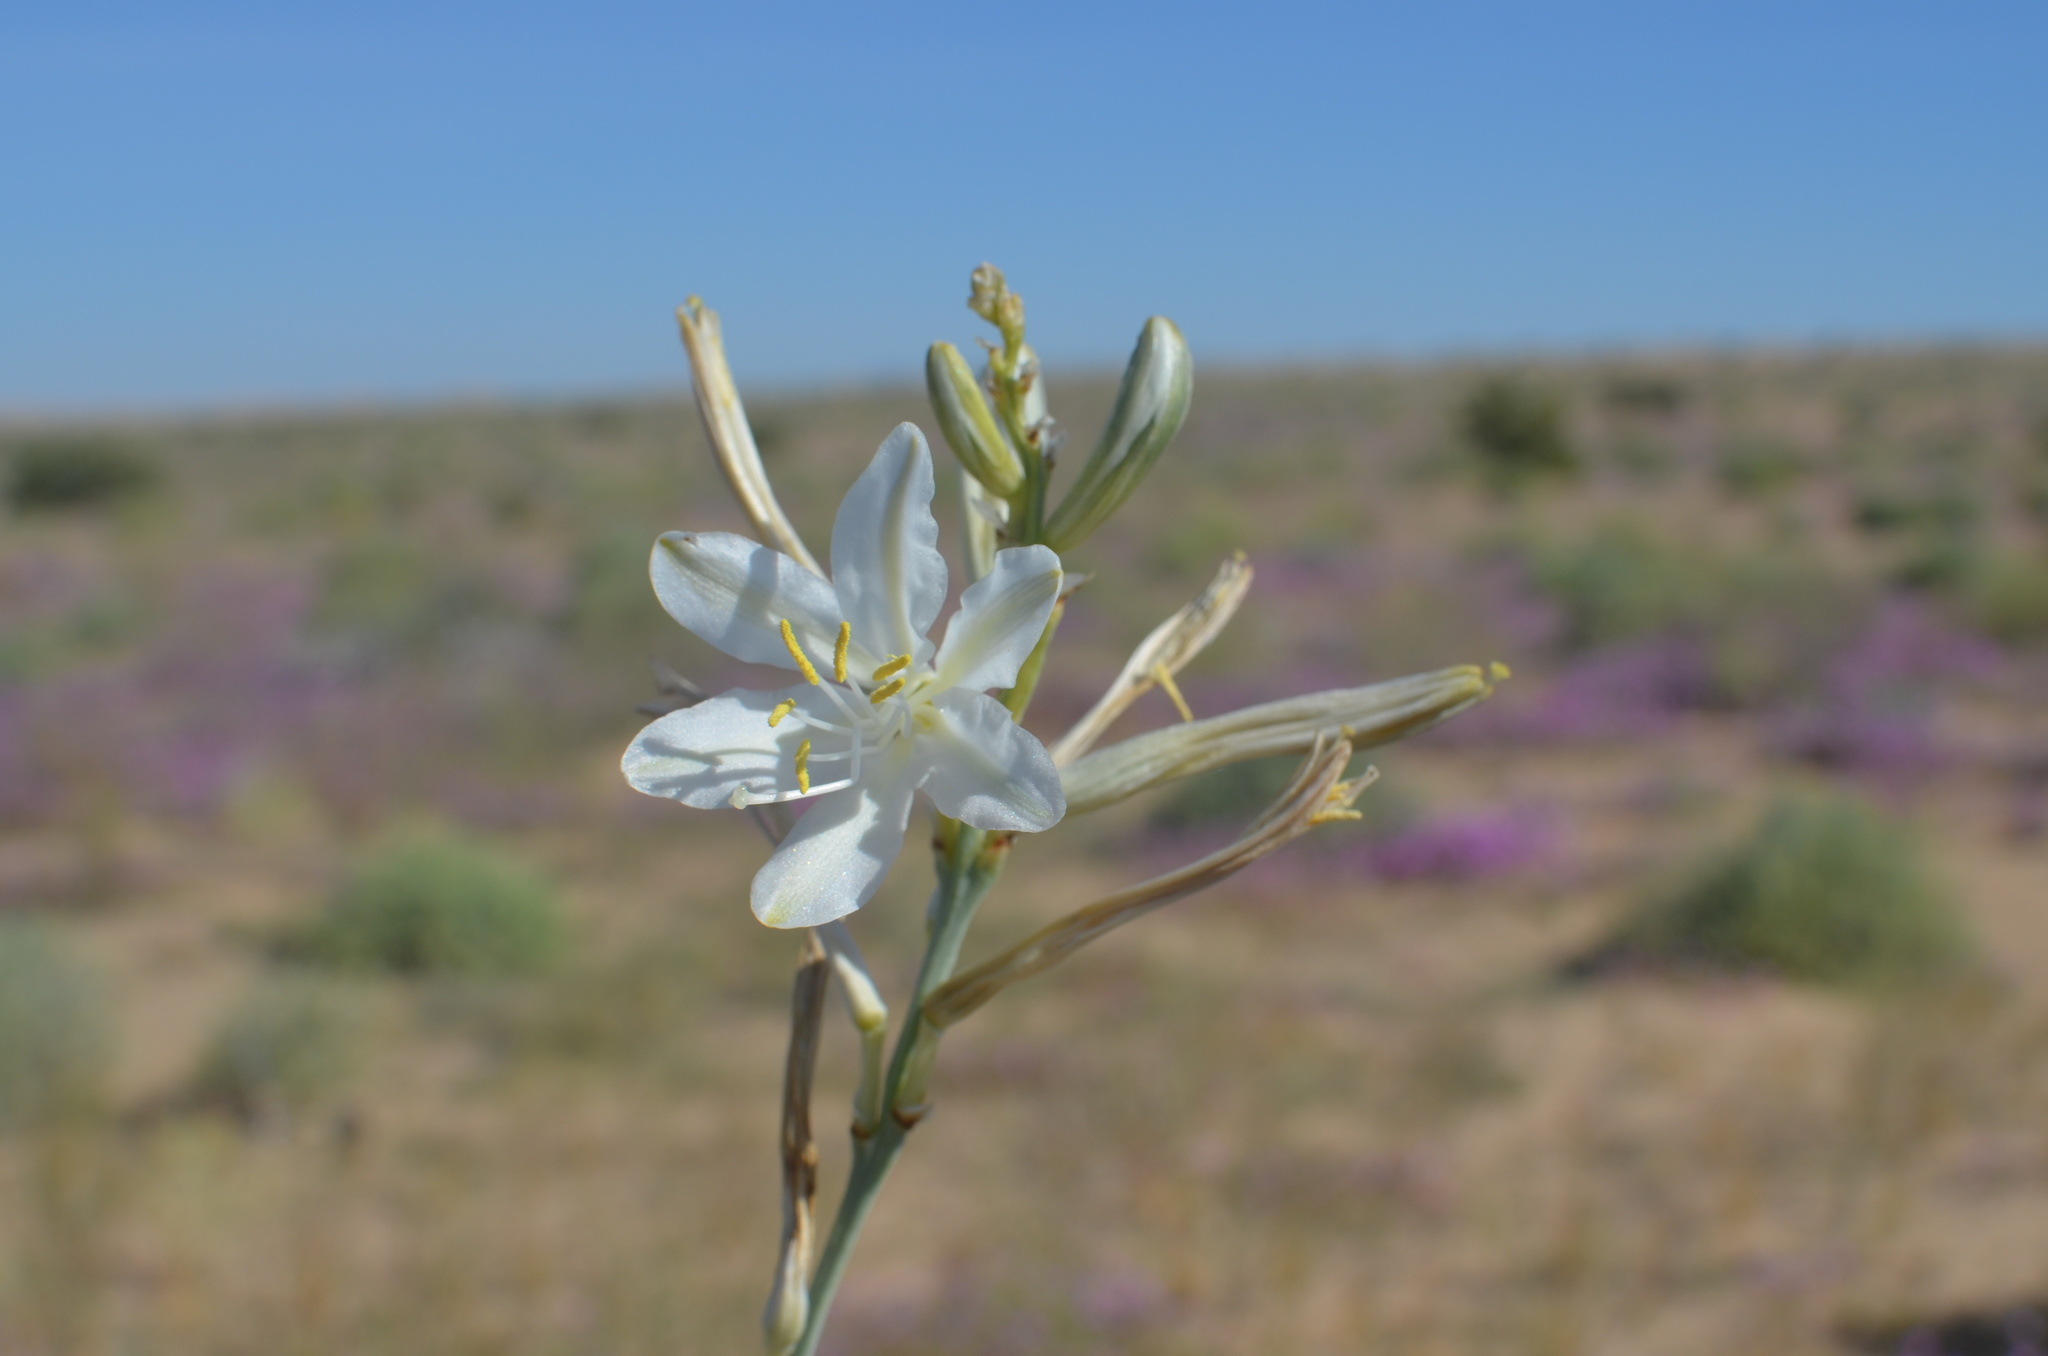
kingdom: Plantae
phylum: Tracheophyta
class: Liliopsida
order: Asparagales
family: Asparagaceae
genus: Hesperocallis
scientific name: Hesperocallis undulata
